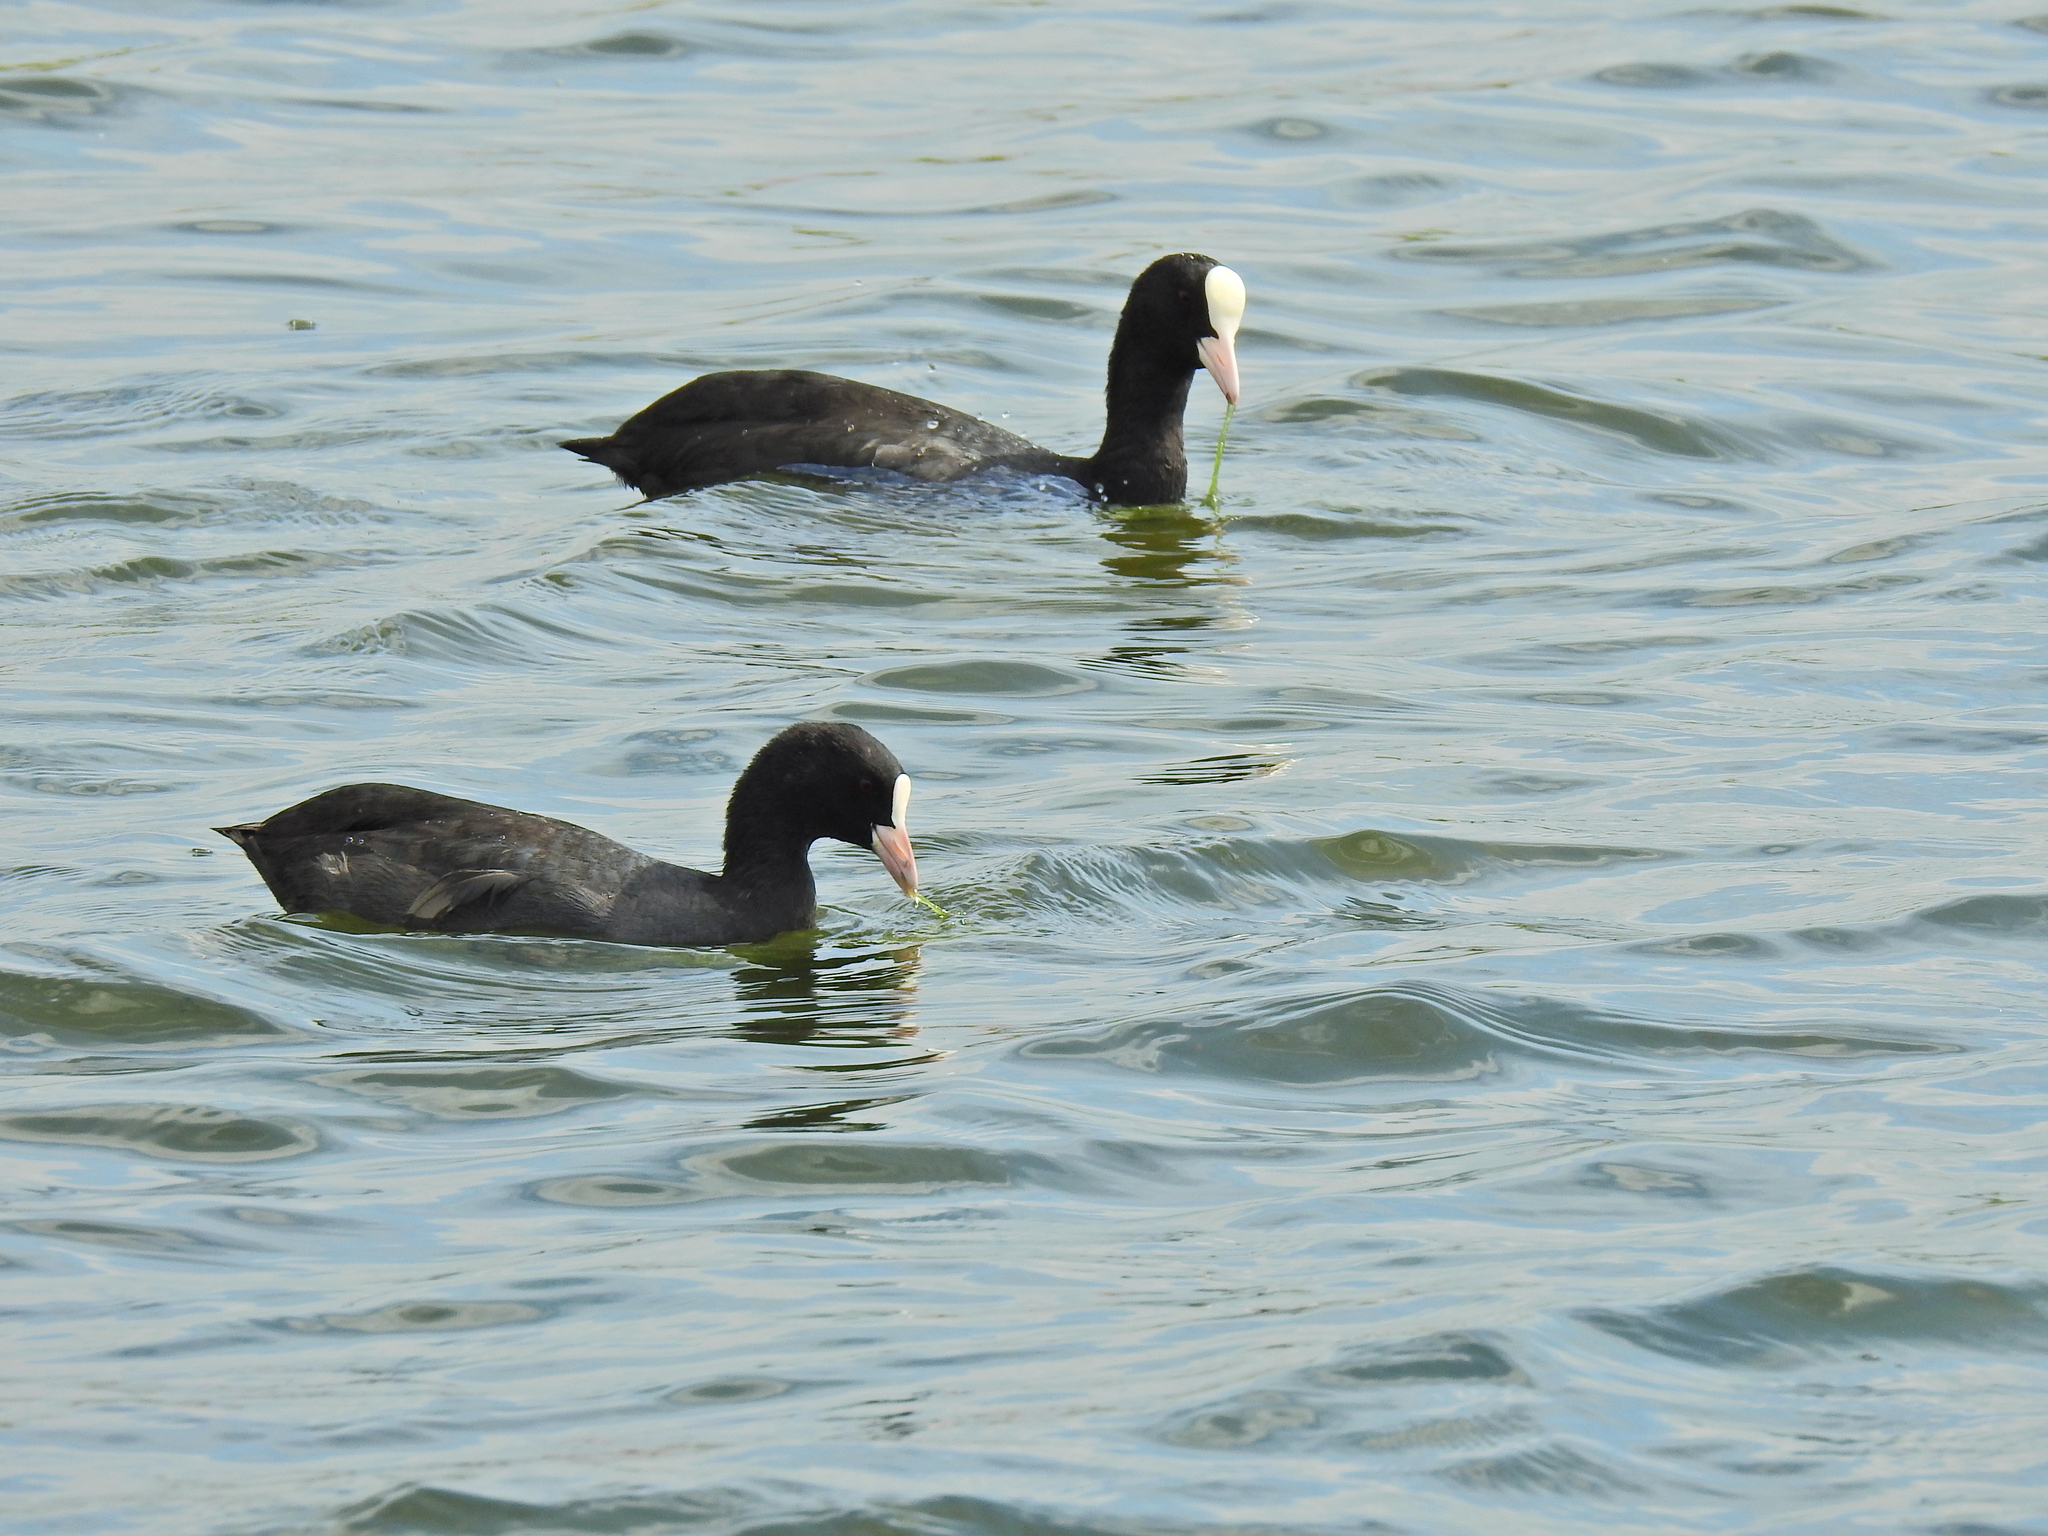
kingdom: Animalia
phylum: Chordata
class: Aves
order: Gruiformes
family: Rallidae
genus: Fulica
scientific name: Fulica atra
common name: Eurasian coot
